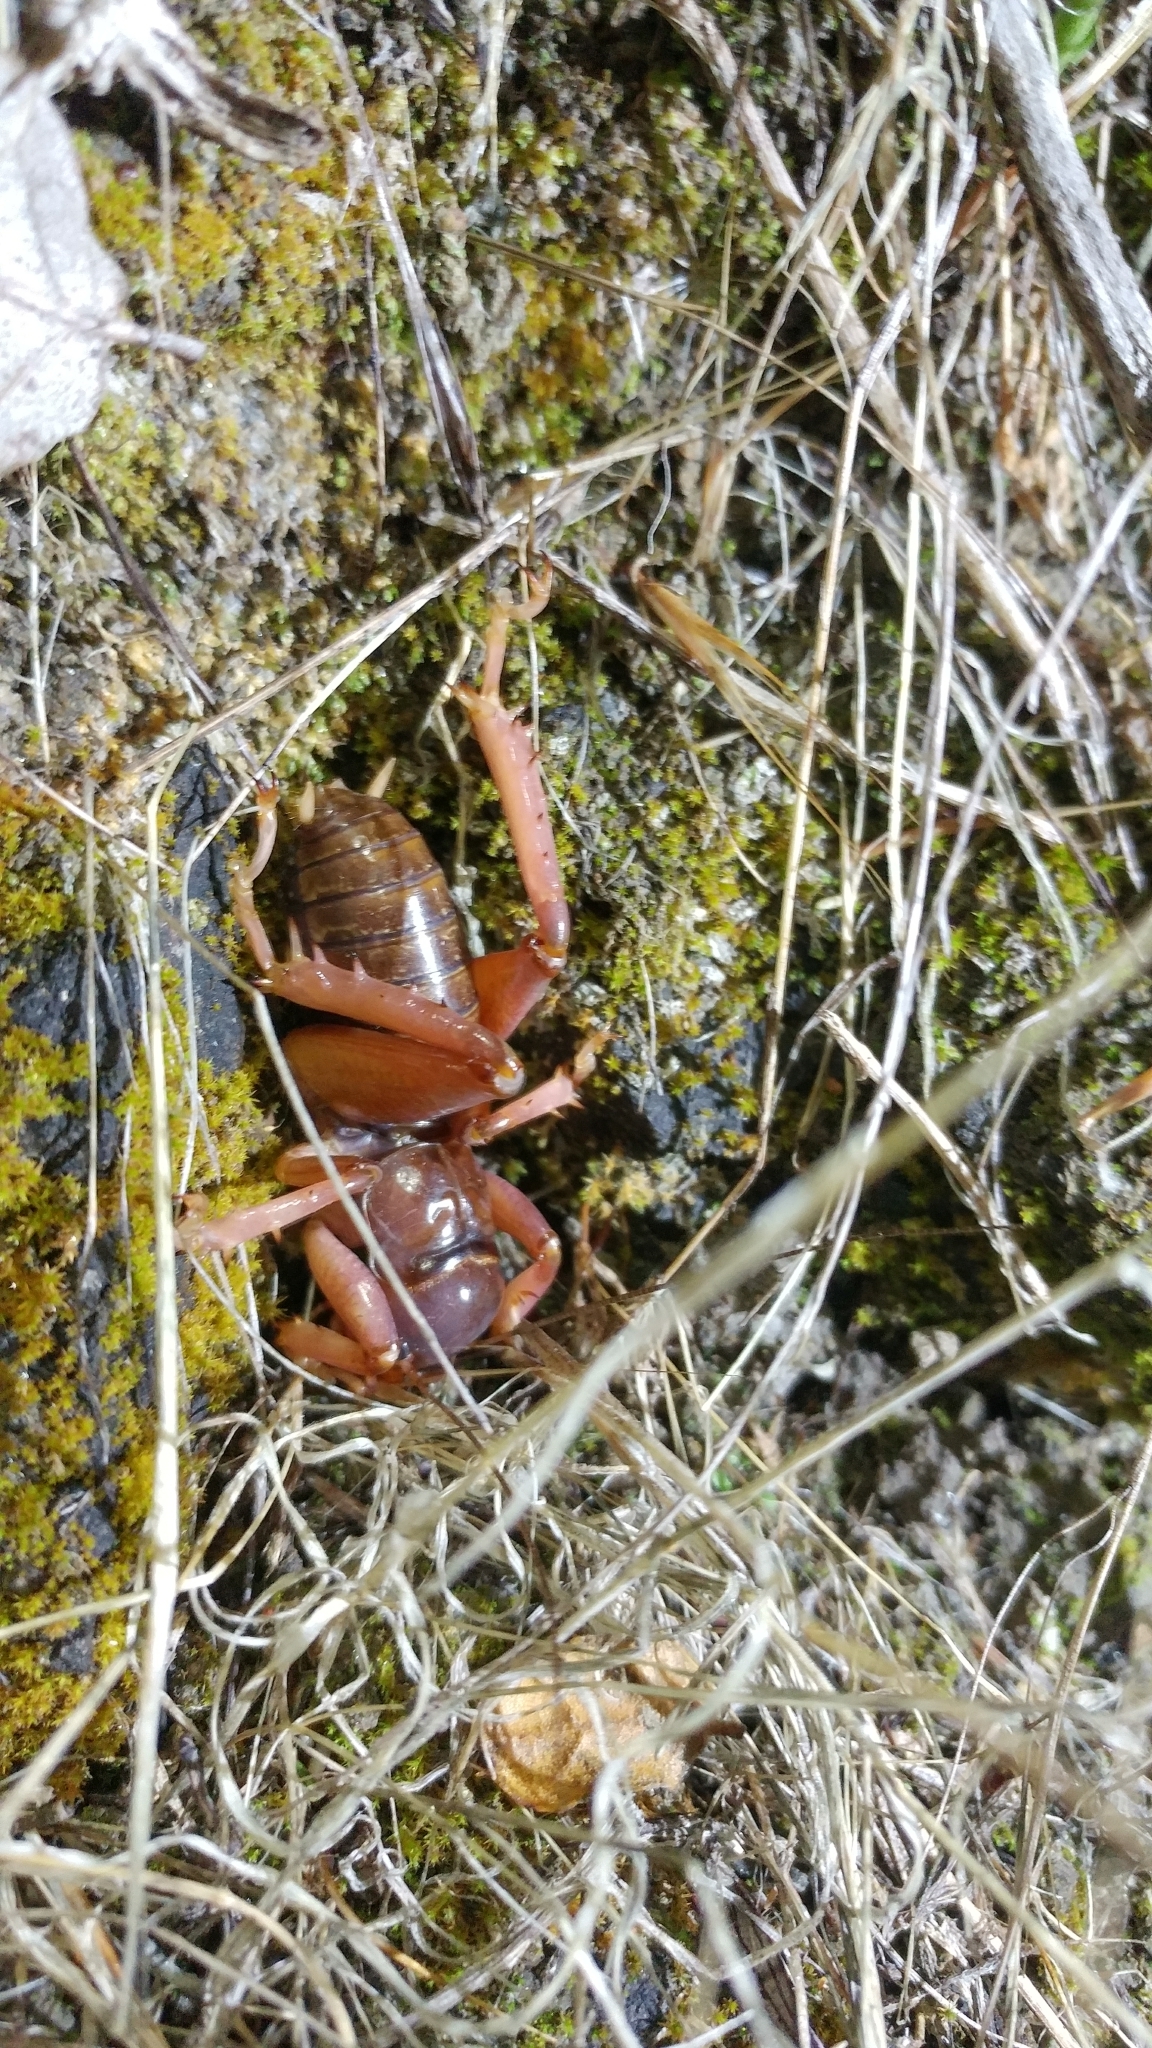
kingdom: Animalia
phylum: Arthropoda
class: Insecta
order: Orthoptera
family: Stenopelmatidae
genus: Ammopelmatus
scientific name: Ammopelmatus
